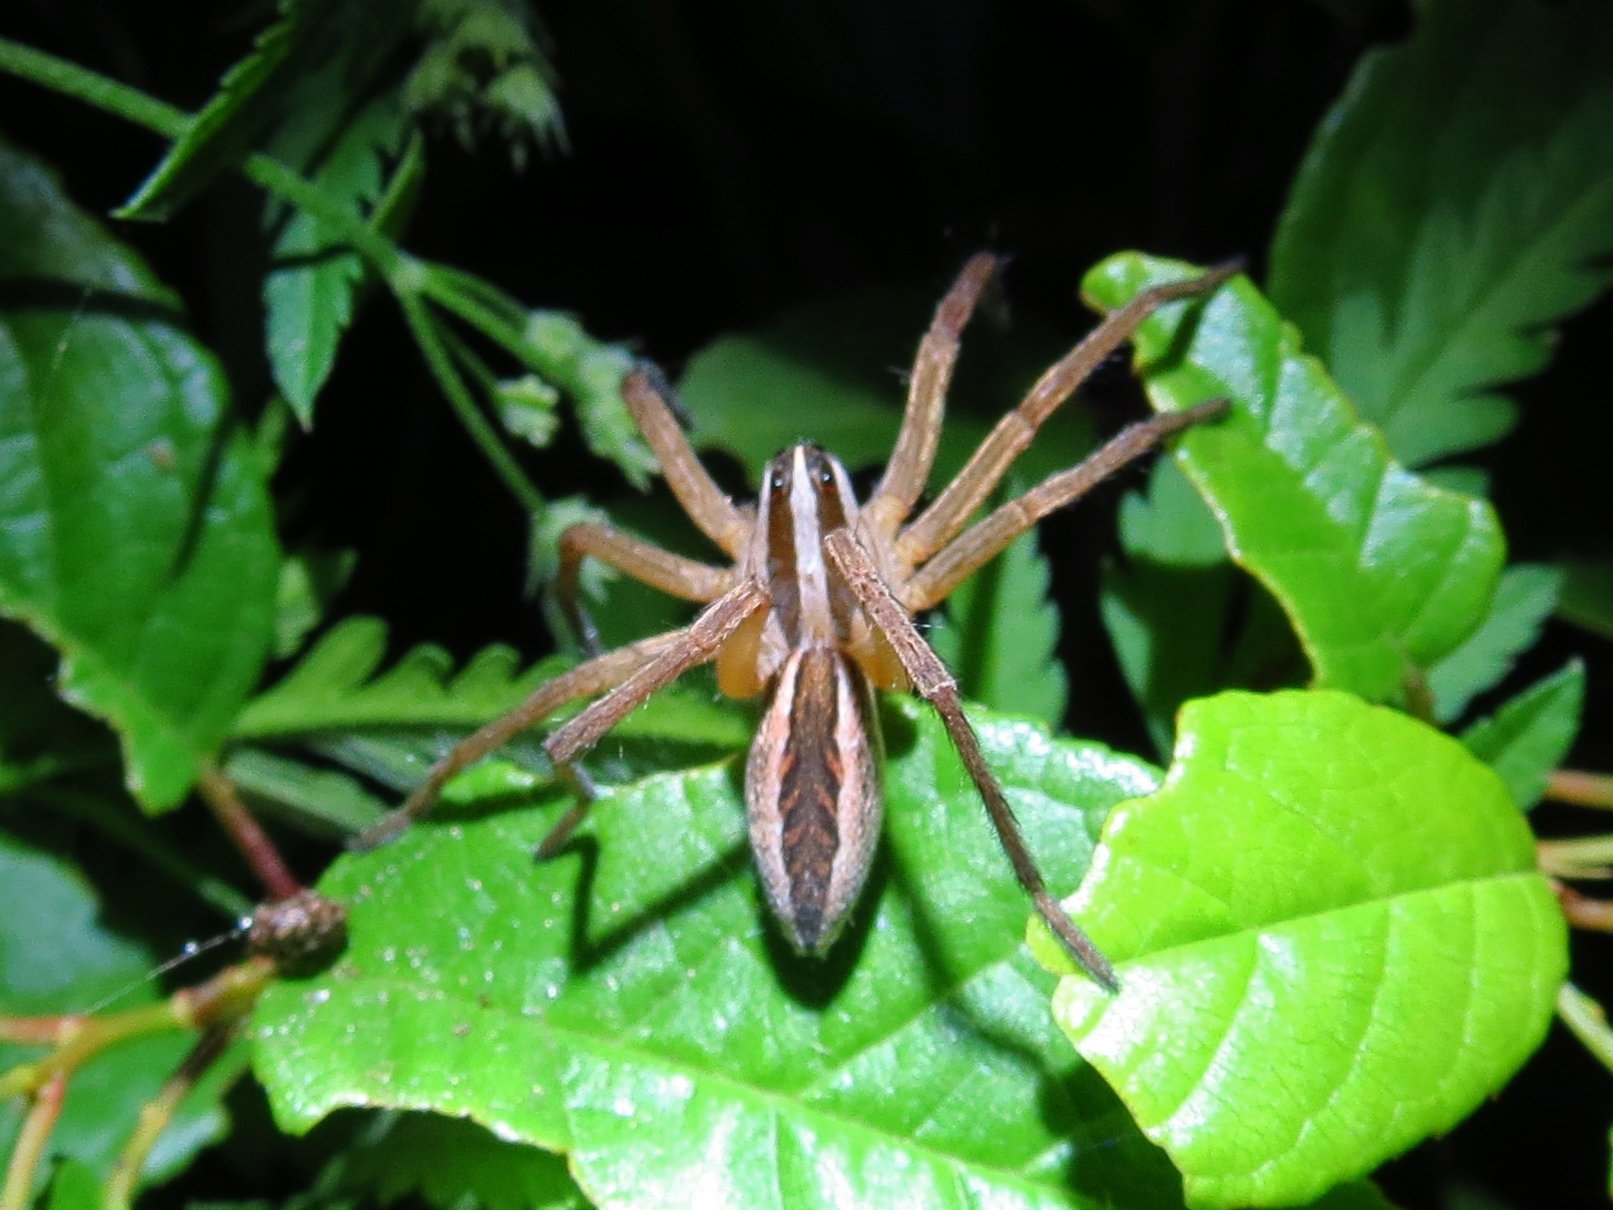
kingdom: Animalia
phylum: Arthropoda
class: Arachnida
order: Araneae
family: Lycosidae
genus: Rabidosa
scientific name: Rabidosa rabida
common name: Rabid wolf spider
